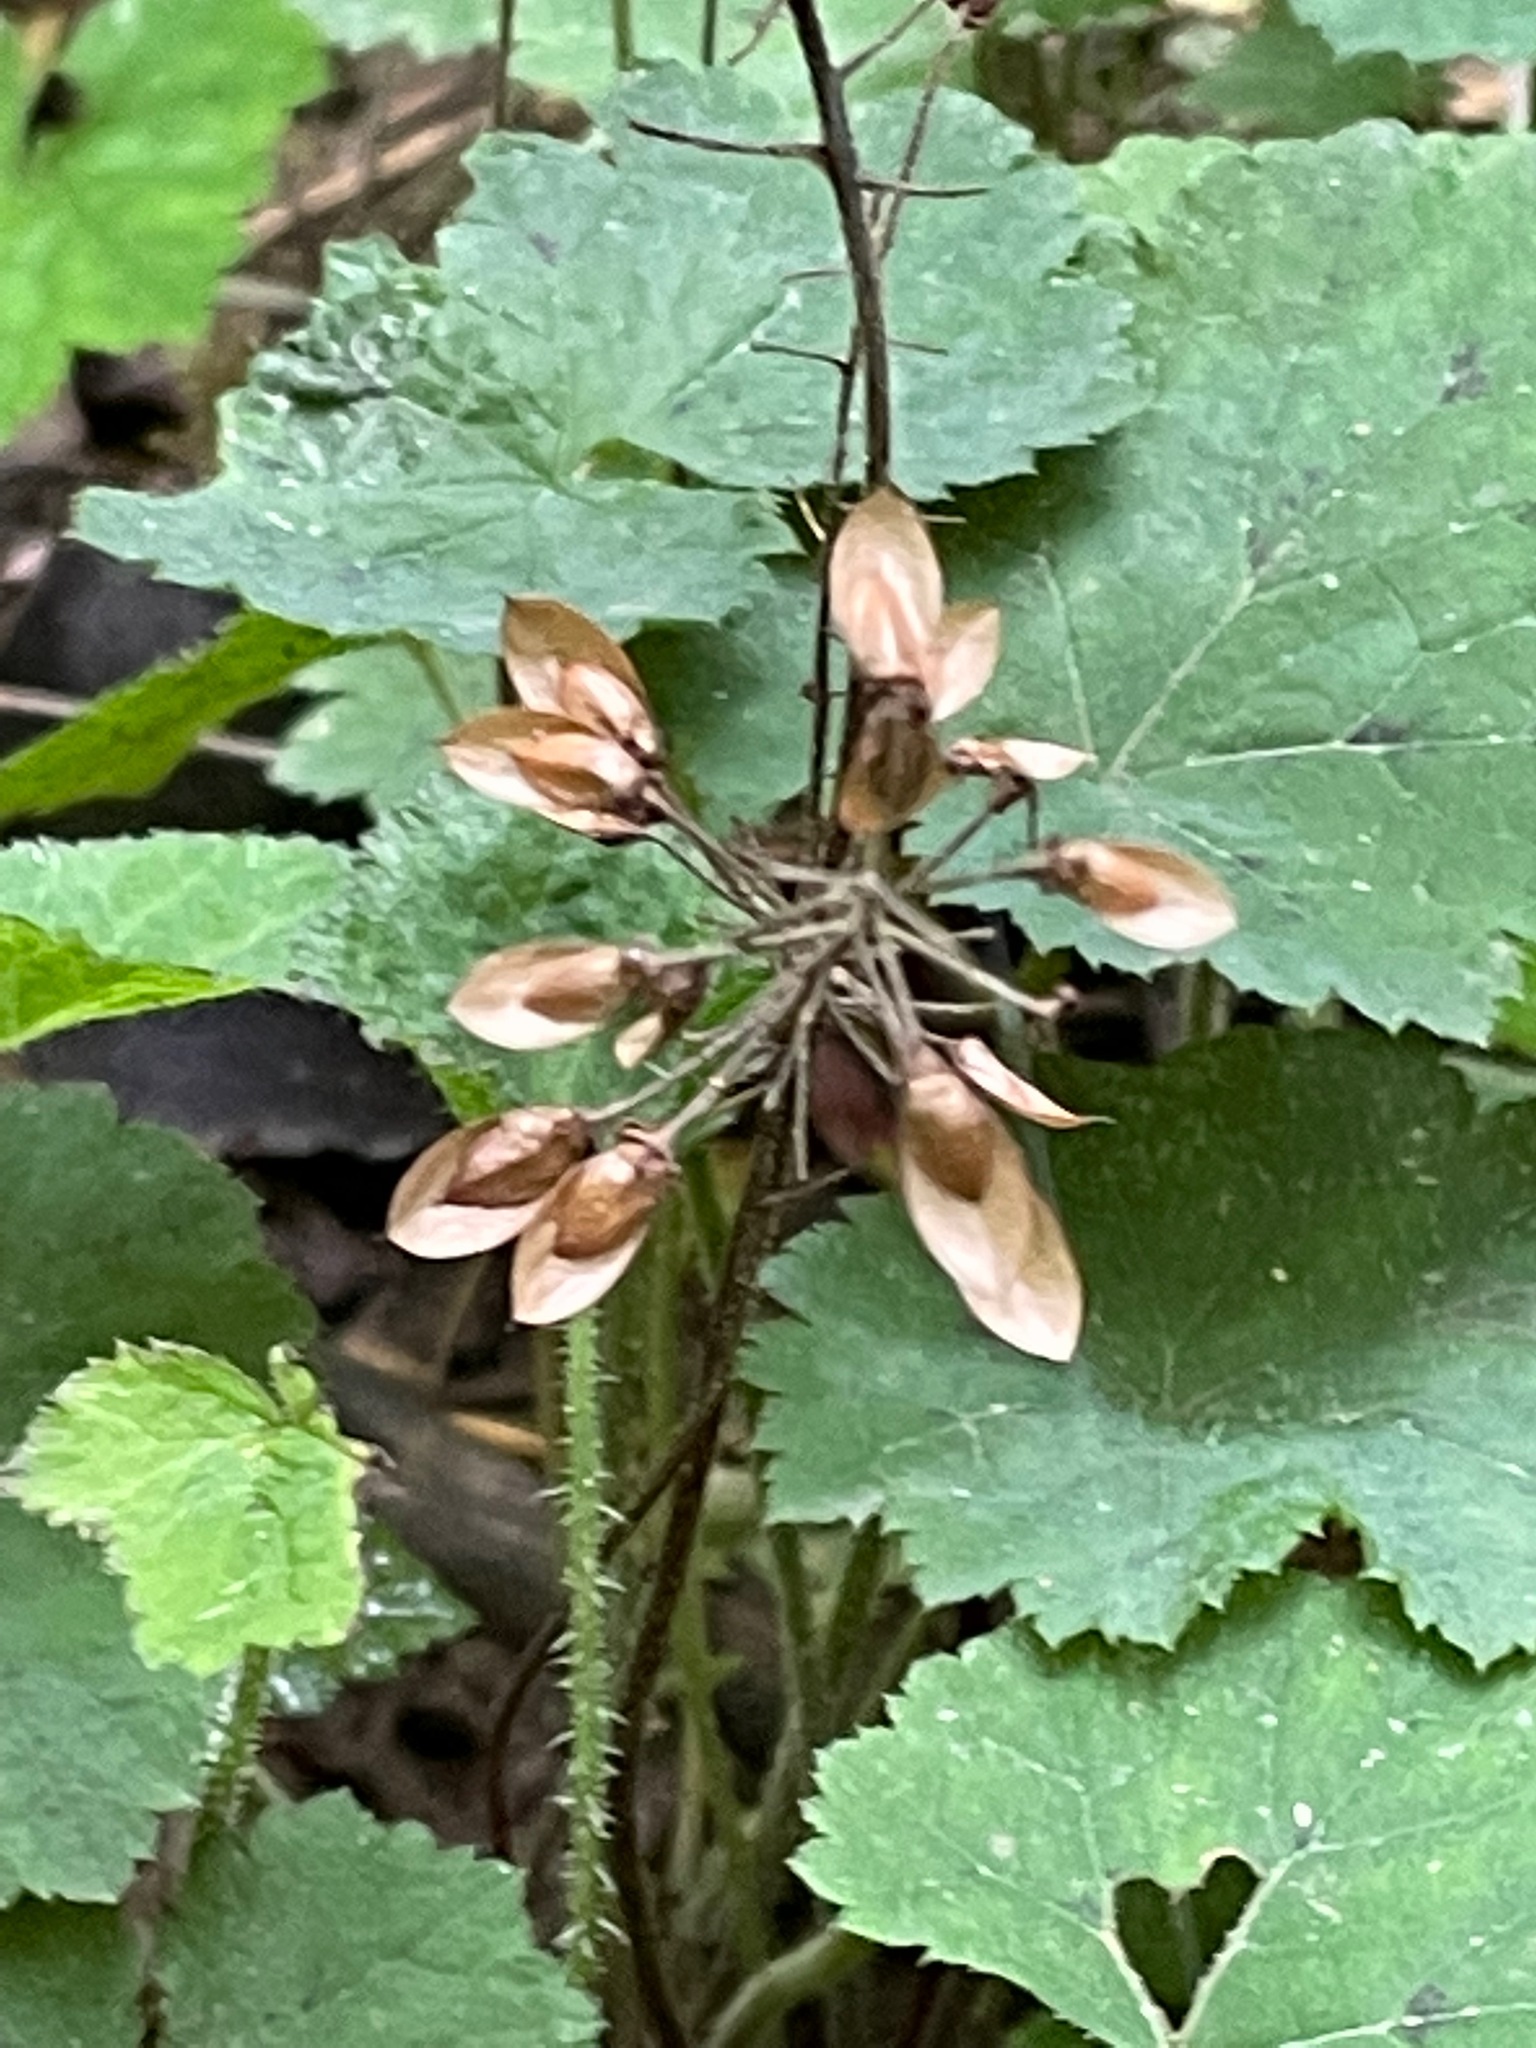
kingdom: Plantae
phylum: Tracheophyta
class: Magnoliopsida
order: Saxifragales
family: Saxifragaceae
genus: Tiarella
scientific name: Tiarella stolonifera
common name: Stoloniferous foamflower
